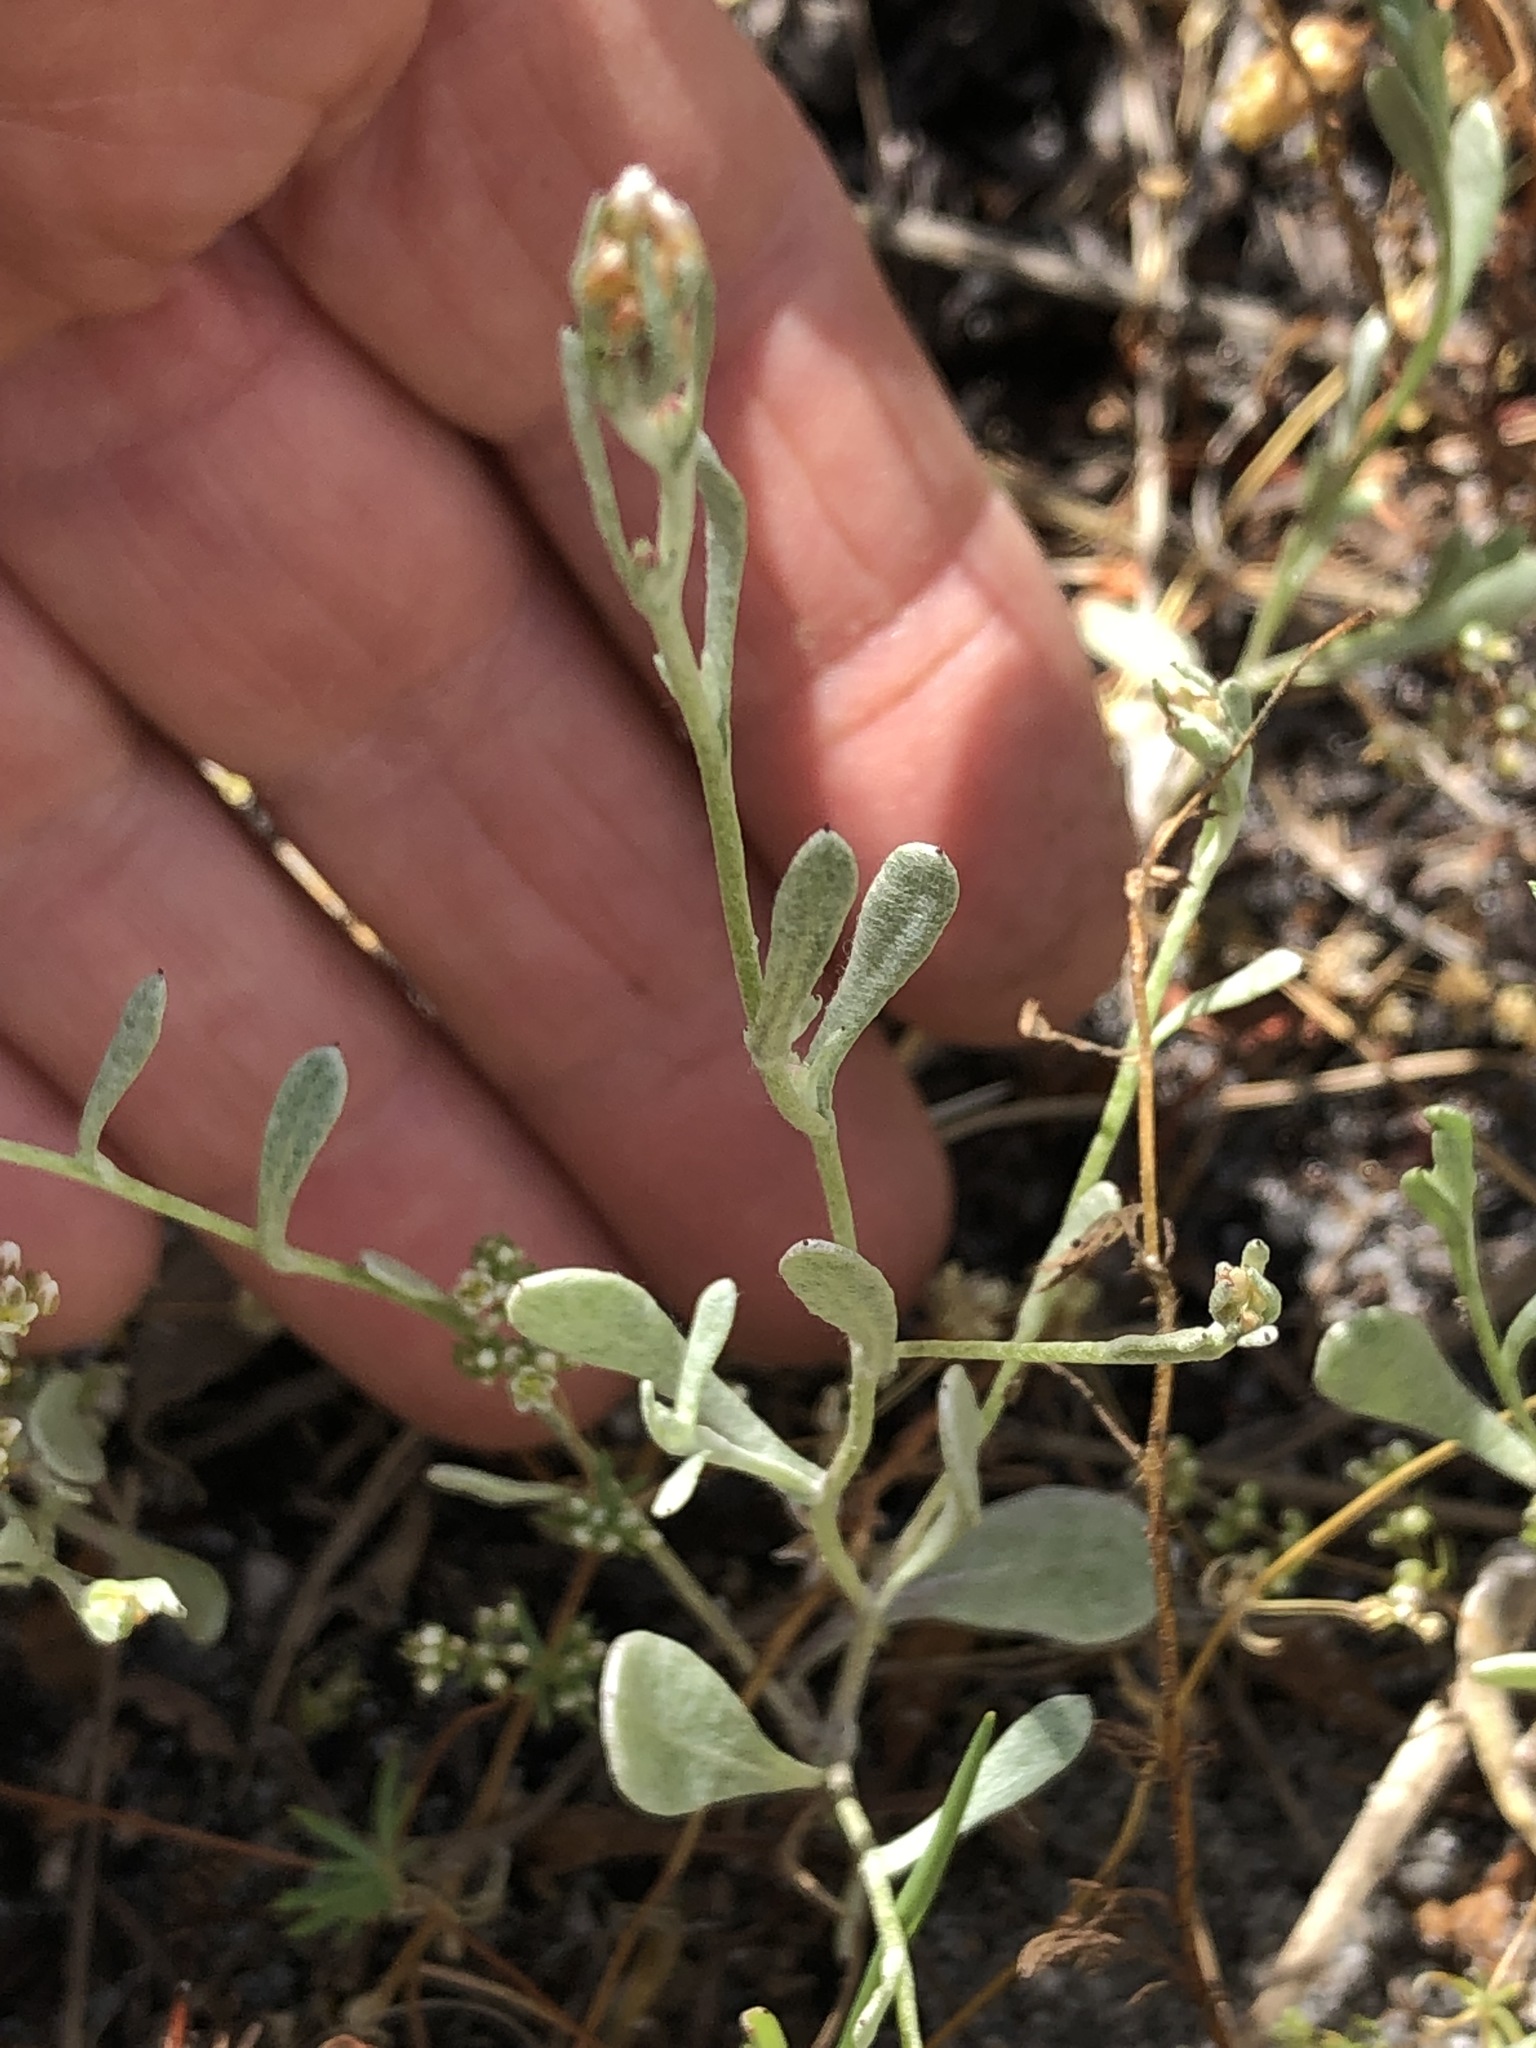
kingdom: Plantae
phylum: Tracheophyta
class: Magnoliopsida
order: Asterales
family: Asteraceae
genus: Helichrysum
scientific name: Helichrysum indicum
